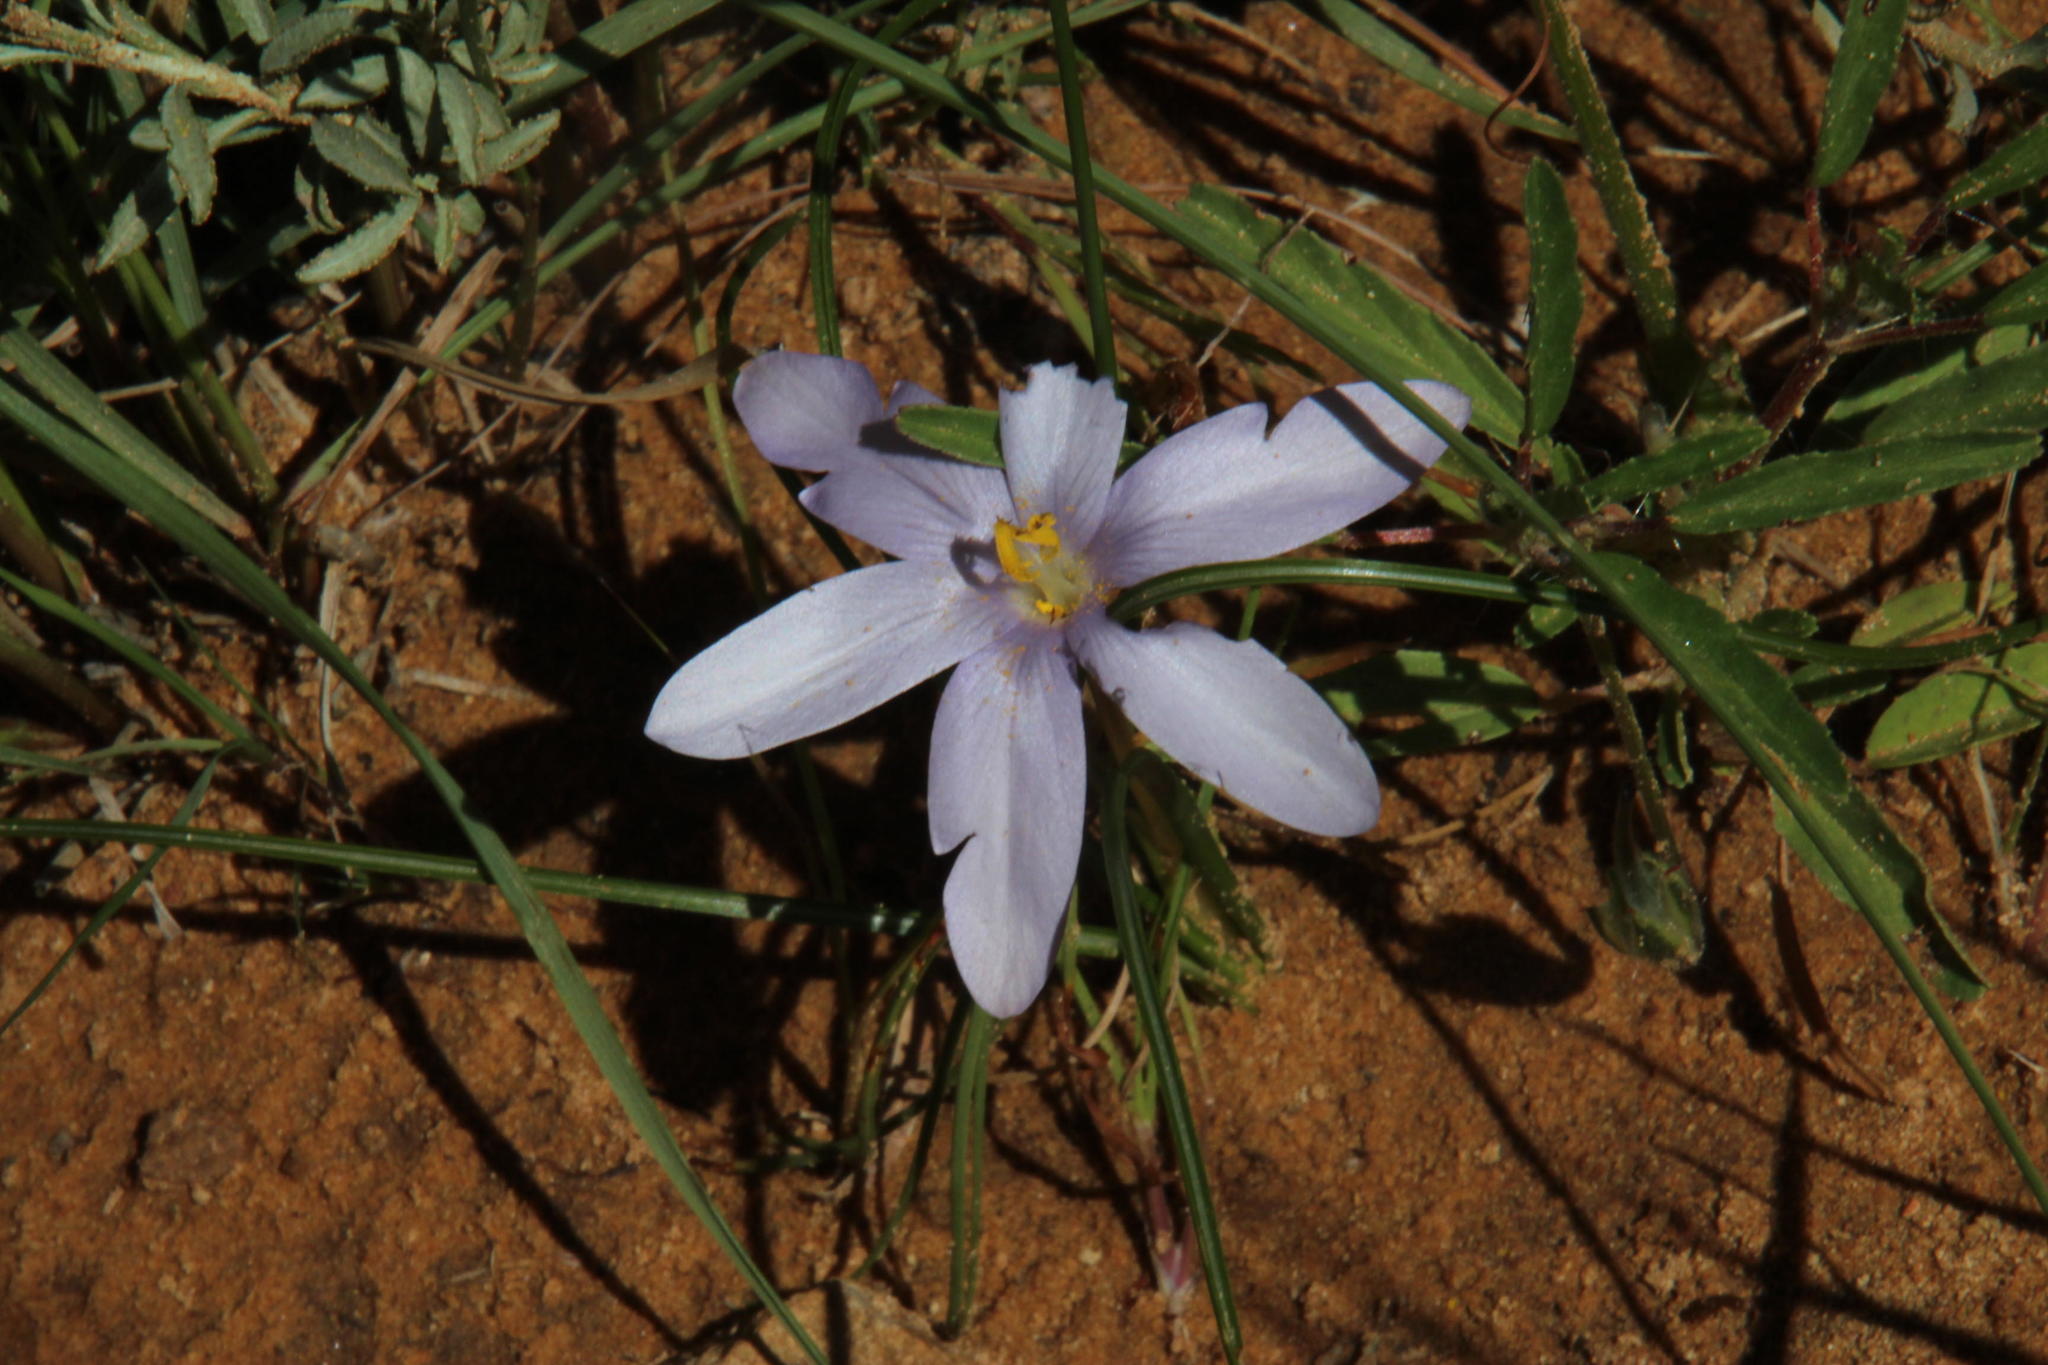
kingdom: Plantae
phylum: Tracheophyta
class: Liliopsida
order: Asparagales
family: Iridaceae
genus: Syringodea
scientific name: Syringodea longituba
